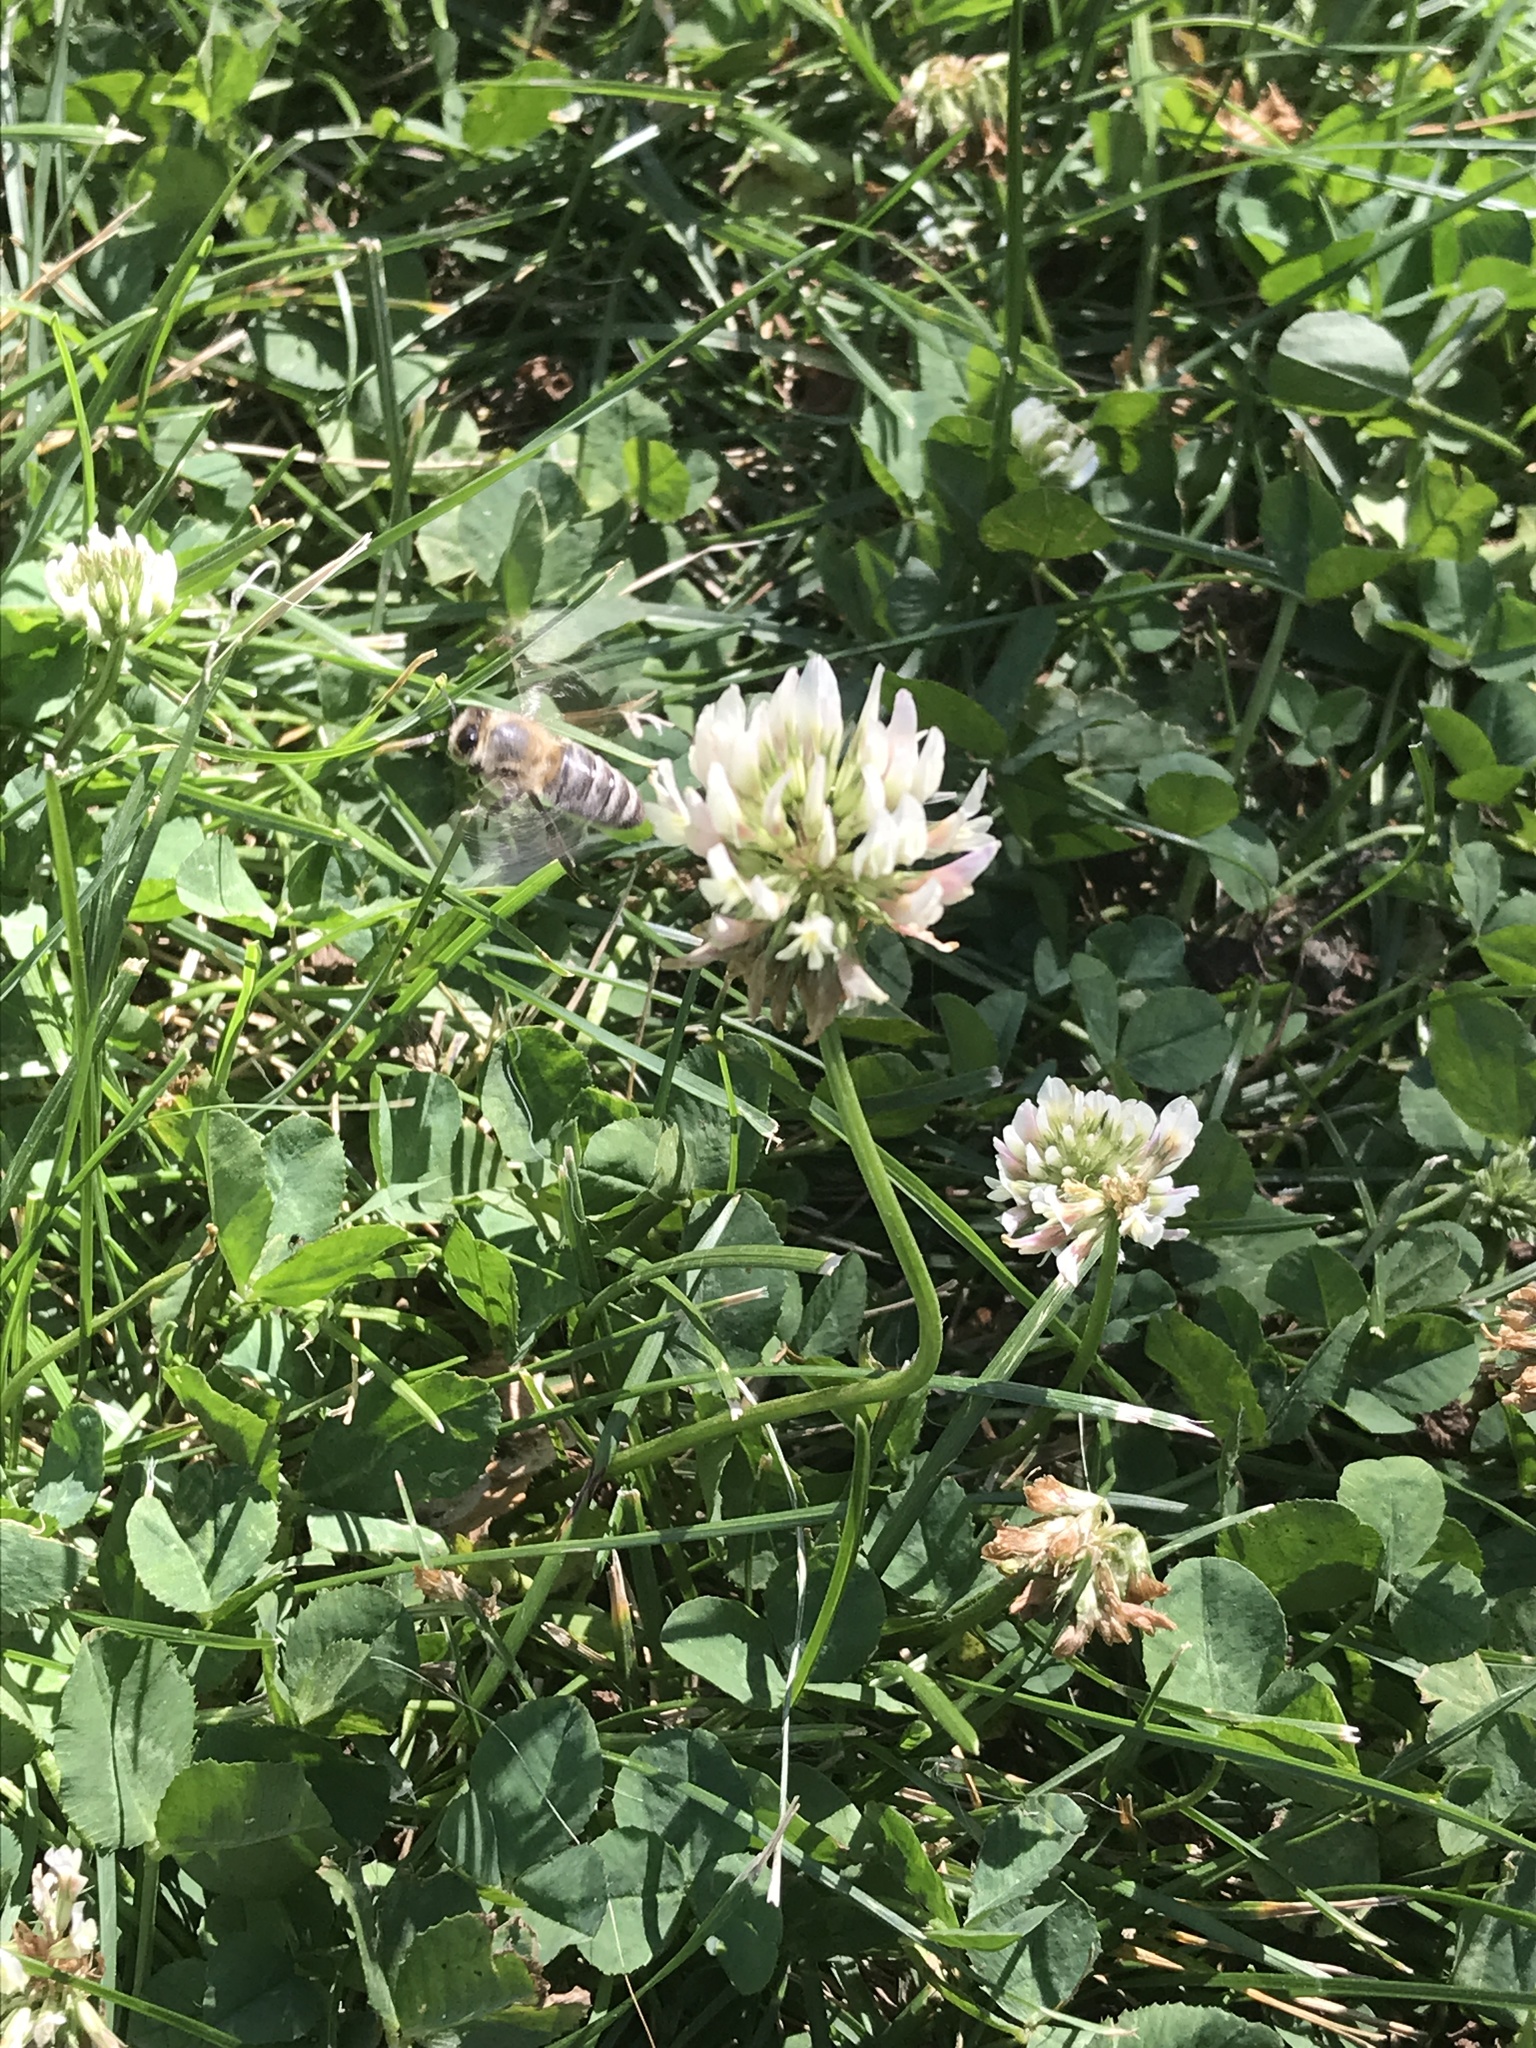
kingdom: Animalia
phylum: Arthropoda
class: Insecta
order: Hymenoptera
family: Apidae
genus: Apis
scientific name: Apis mellifera
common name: Honey bee
